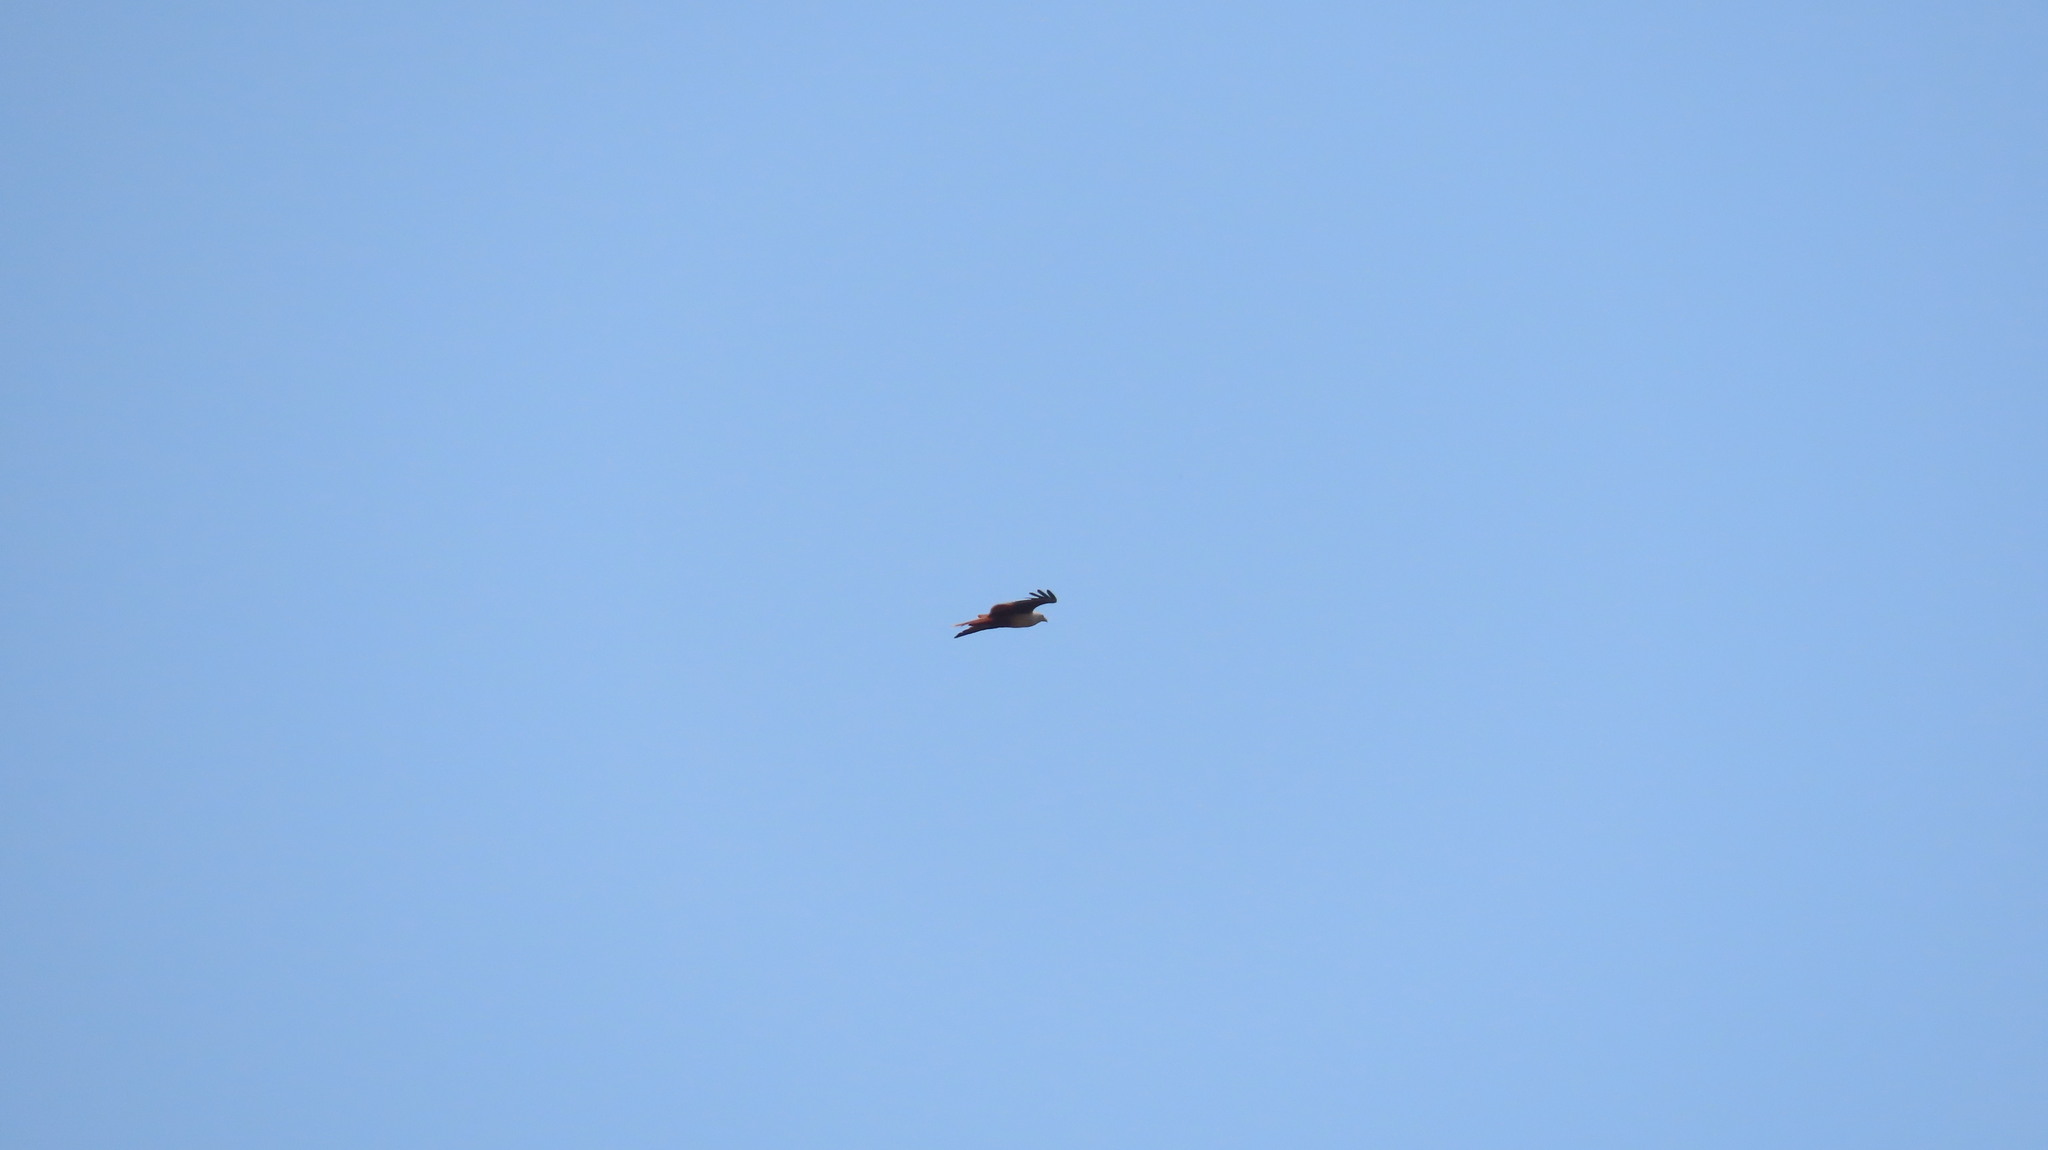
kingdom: Animalia
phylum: Chordata
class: Aves
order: Accipitriformes
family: Accipitridae
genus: Haliastur
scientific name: Haliastur indus
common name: Brahminy kite
